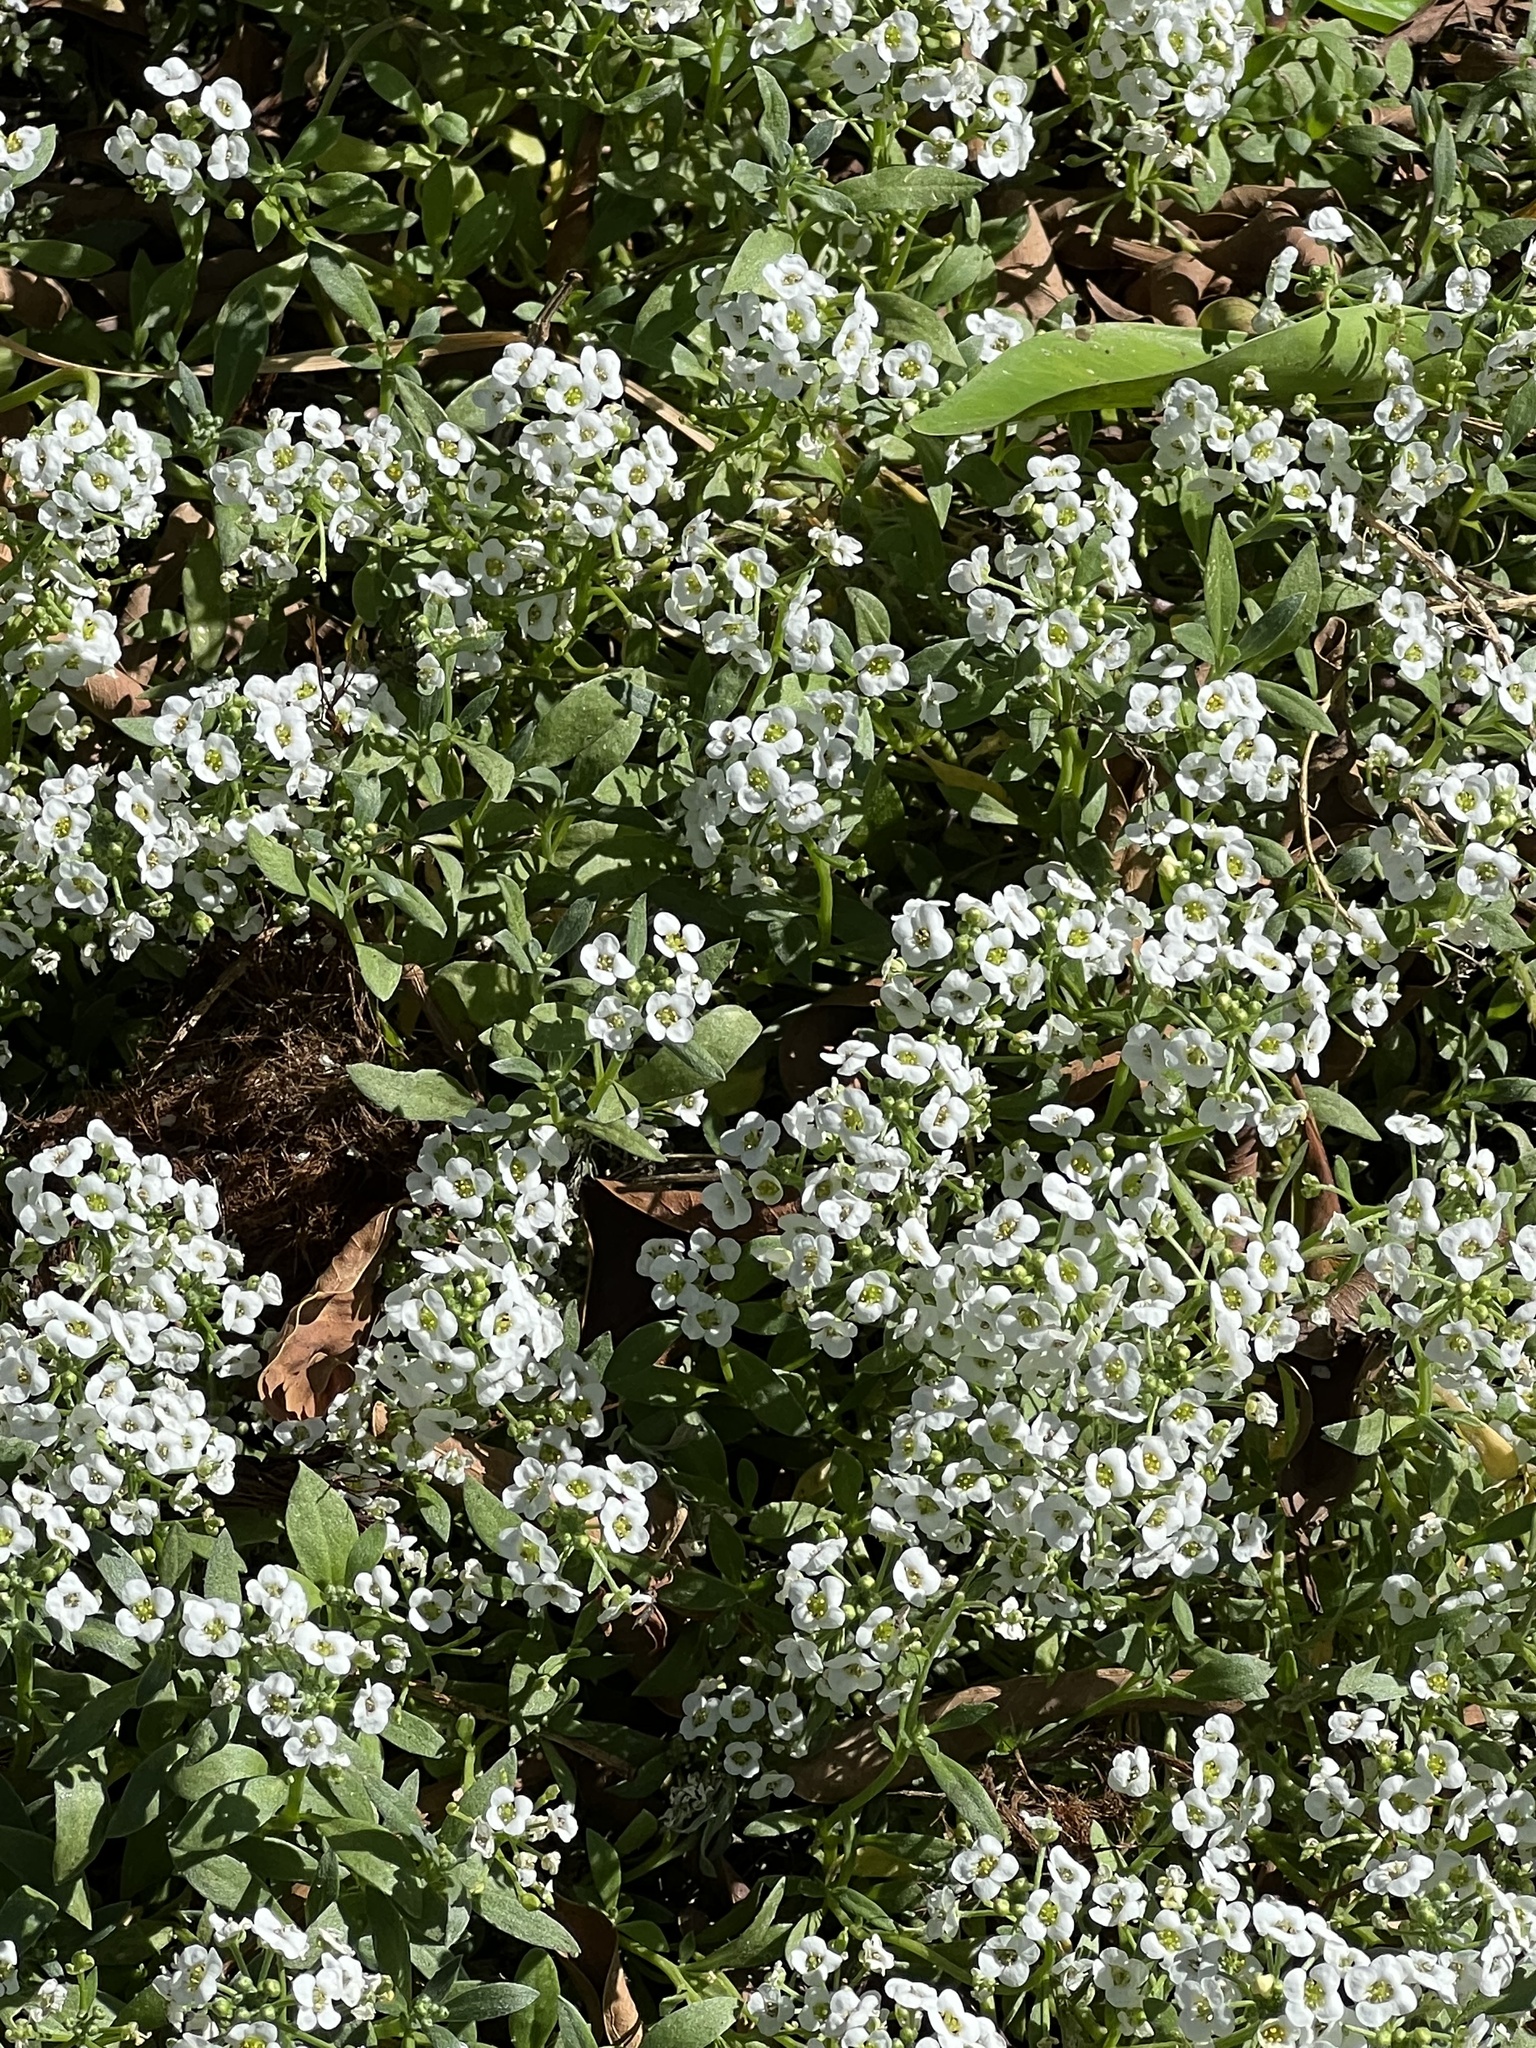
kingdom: Plantae
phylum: Tracheophyta
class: Magnoliopsida
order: Brassicales
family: Brassicaceae
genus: Lobularia
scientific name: Lobularia maritima
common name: Sweet alison
